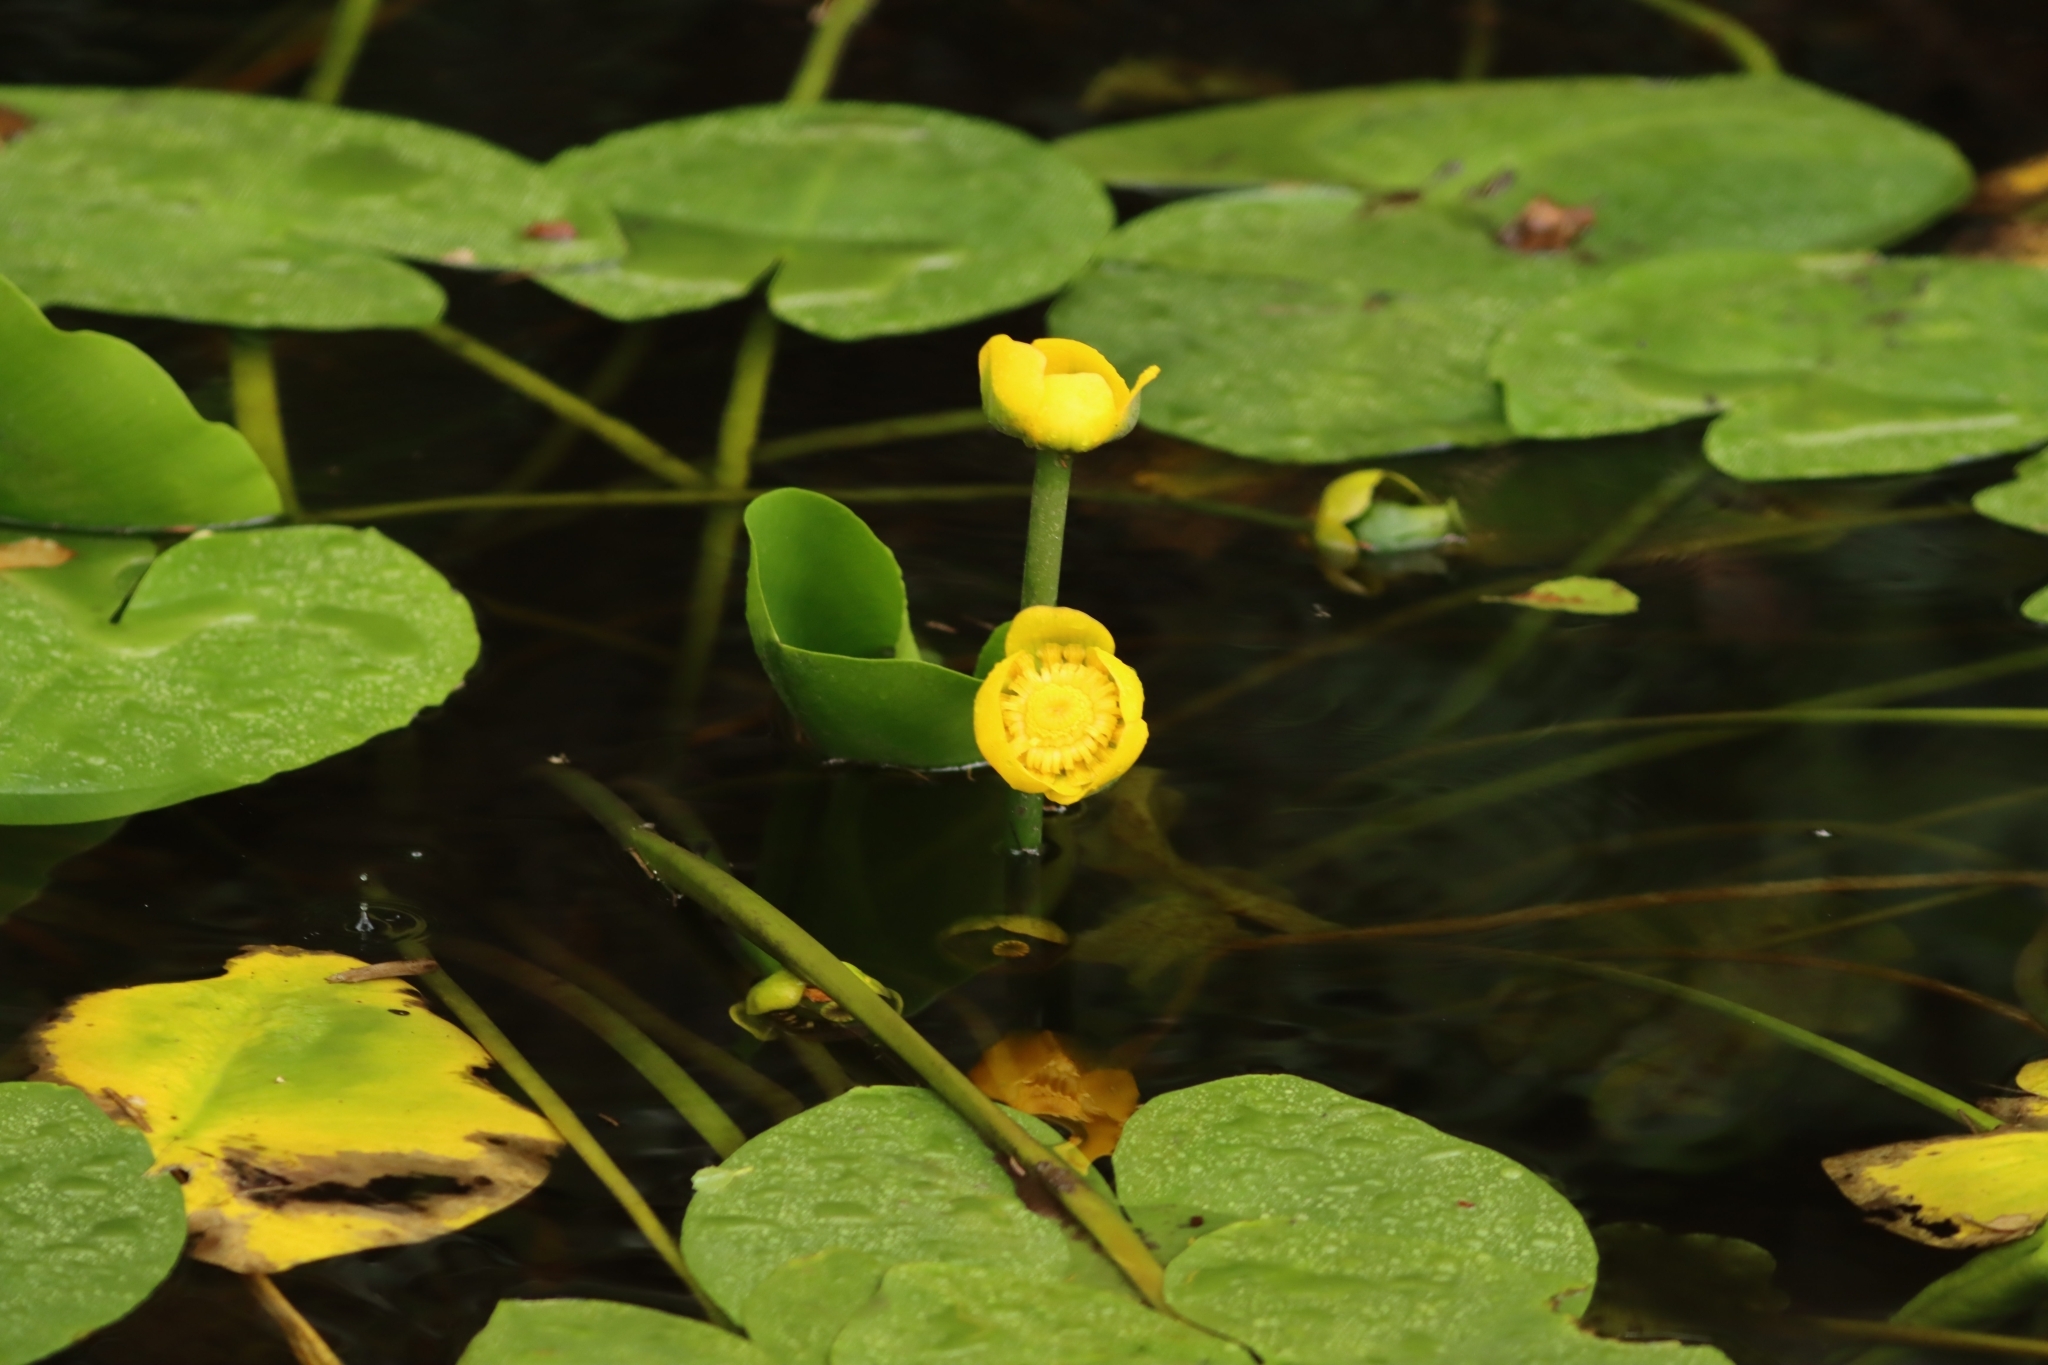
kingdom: Plantae
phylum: Tracheophyta
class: Magnoliopsida
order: Nymphaeales
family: Nymphaeaceae
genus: Nuphar
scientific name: Nuphar lutea
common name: Yellow water-lily
